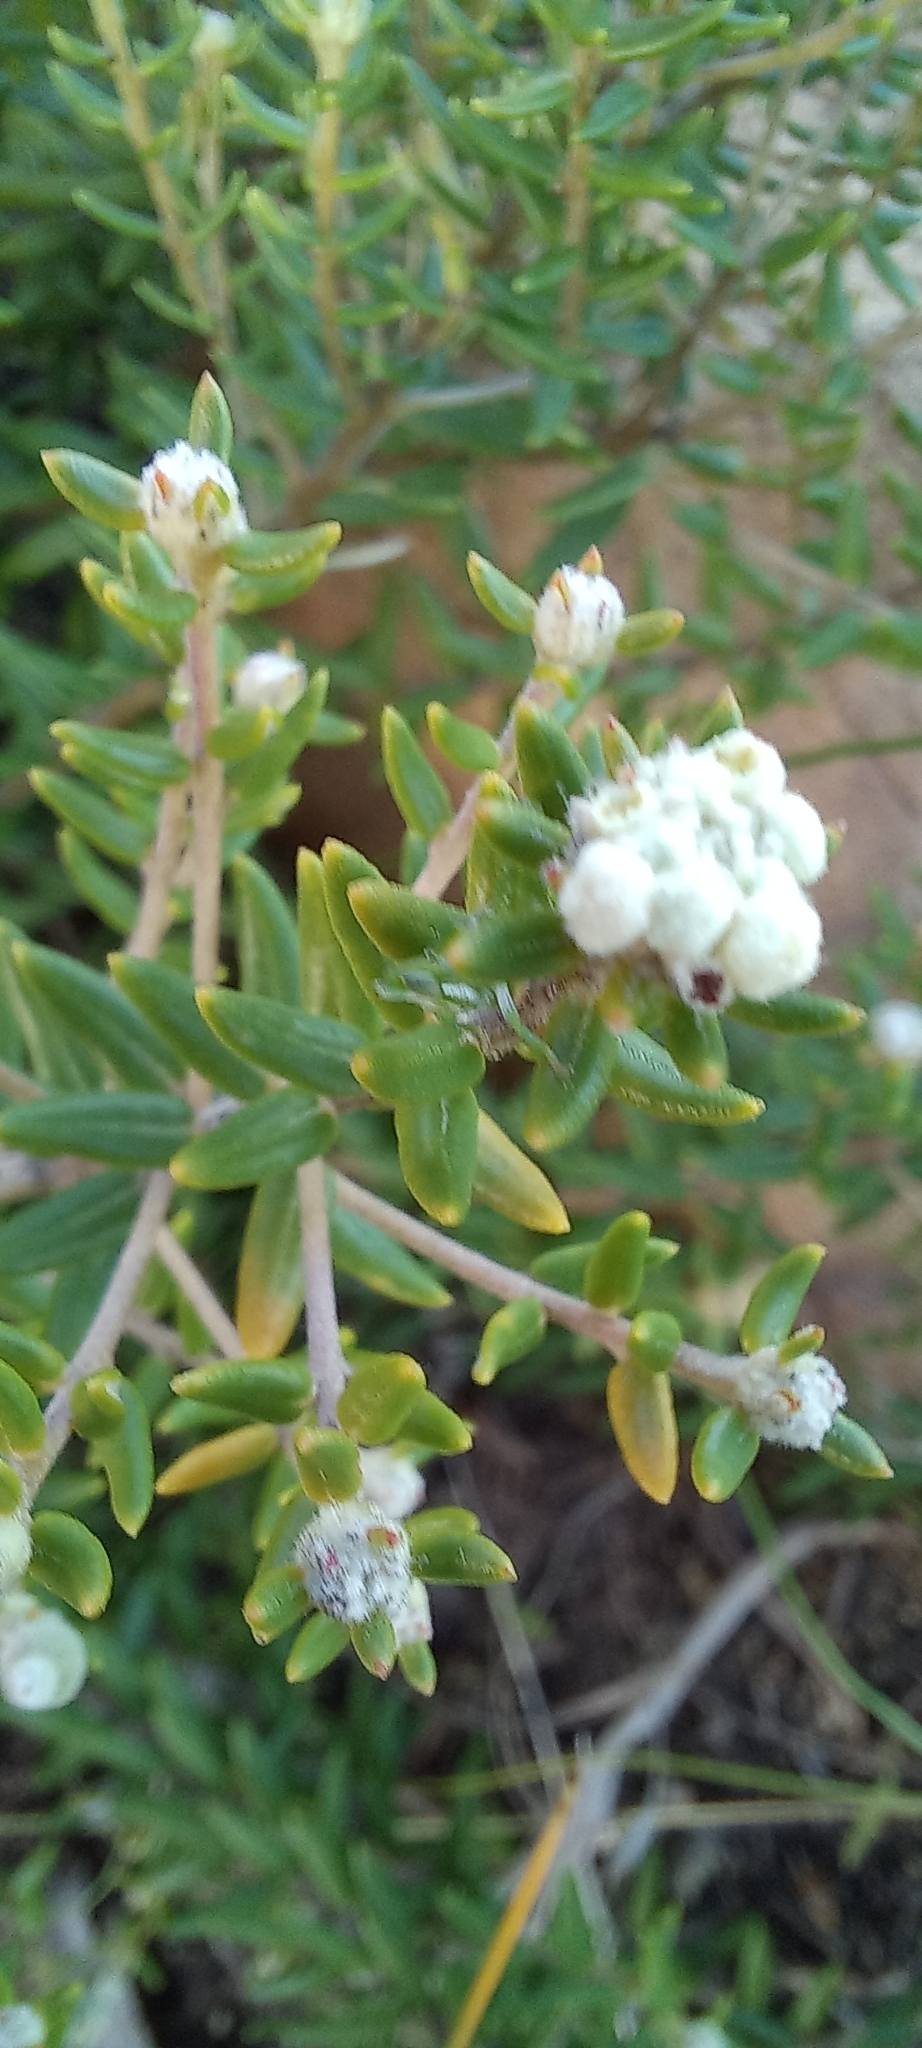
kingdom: Plantae
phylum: Tracheophyta
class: Magnoliopsida
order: Rosales
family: Rhamnaceae
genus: Phylica
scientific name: Phylica lasiocarpa
